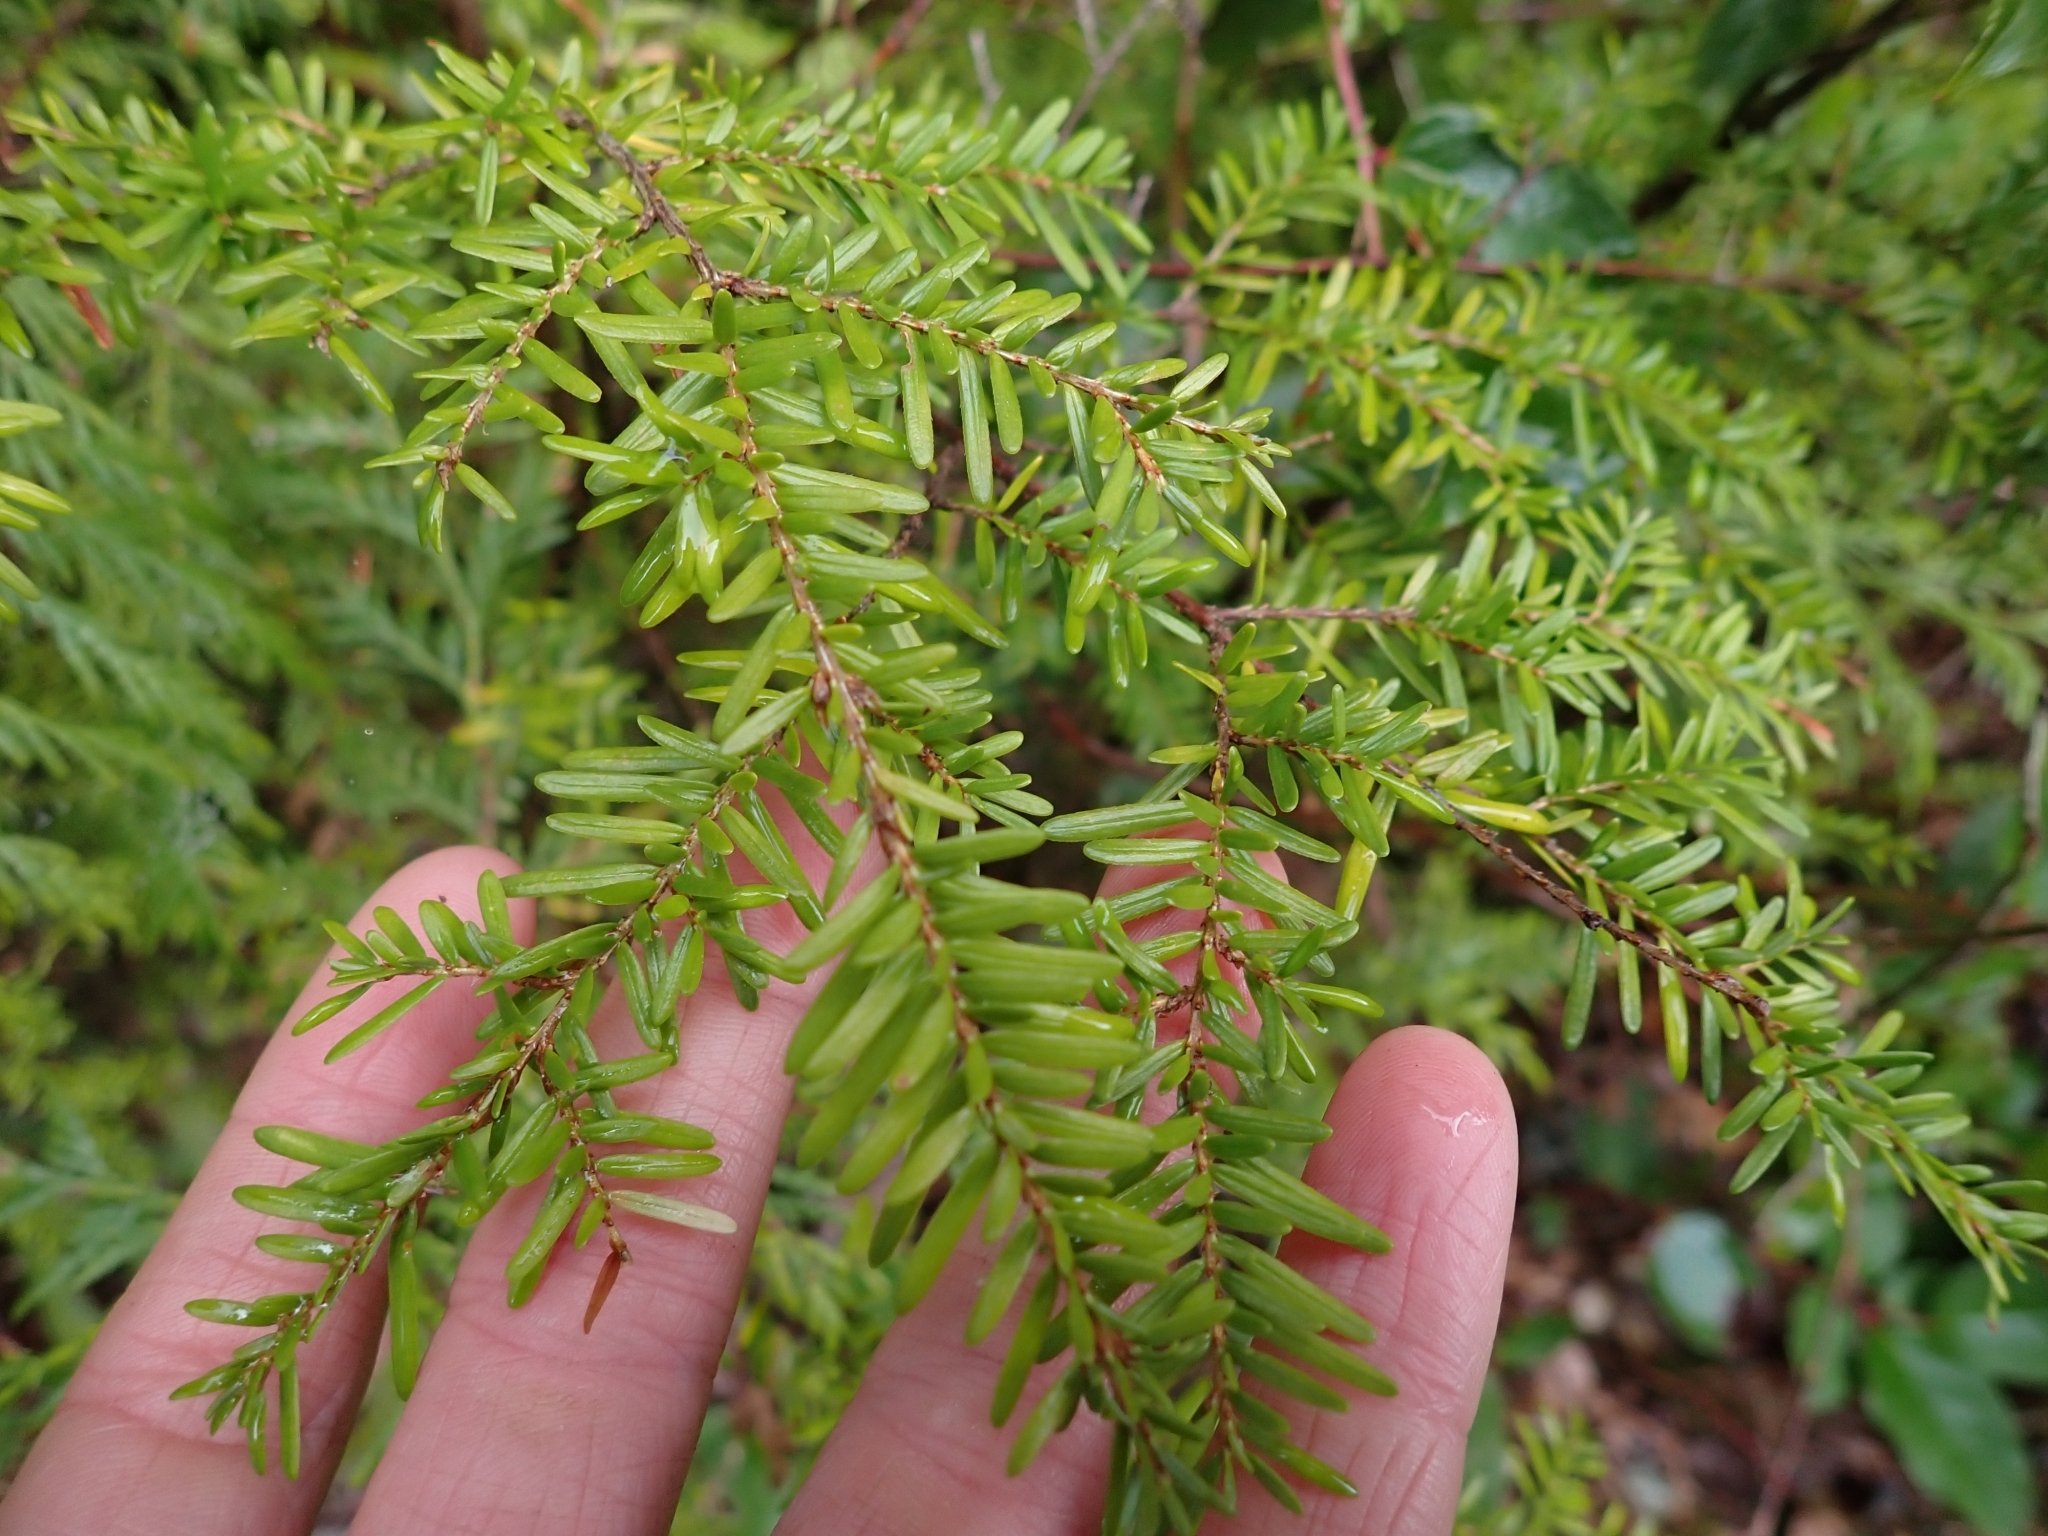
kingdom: Plantae
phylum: Tracheophyta
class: Pinopsida
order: Pinales
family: Pinaceae
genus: Tsuga
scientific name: Tsuga heterophylla
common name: Western hemlock
